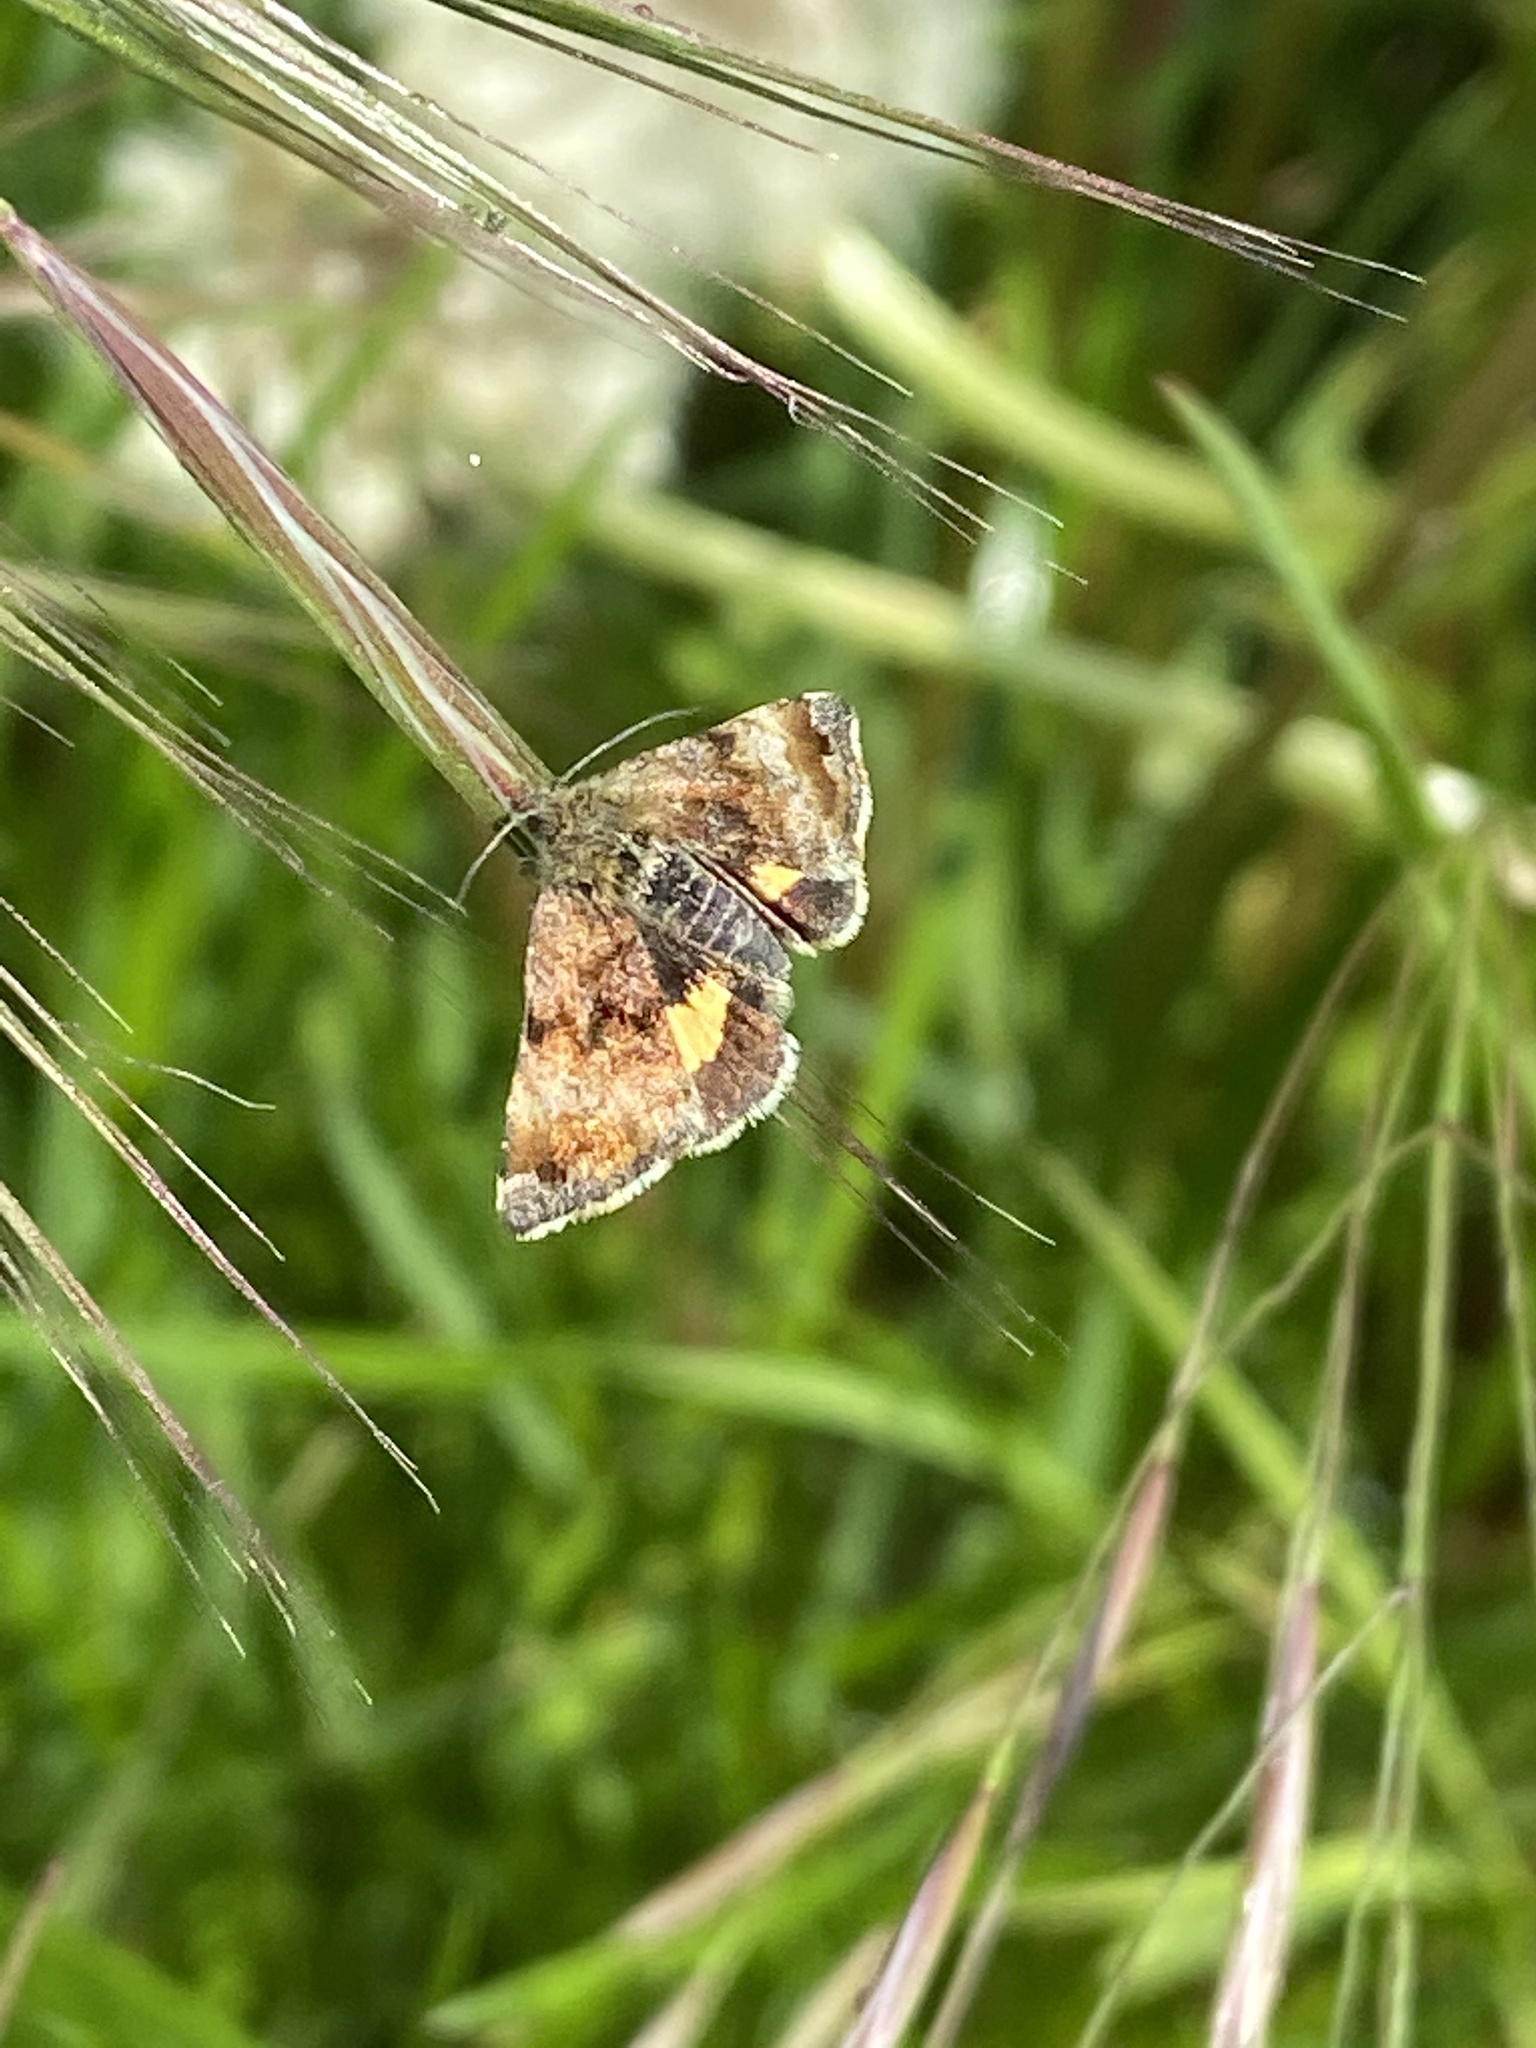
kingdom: Animalia
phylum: Arthropoda
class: Insecta
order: Lepidoptera
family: Noctuidae
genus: Panemeria
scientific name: Panemeria tenebrata
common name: Small yellow underwing
